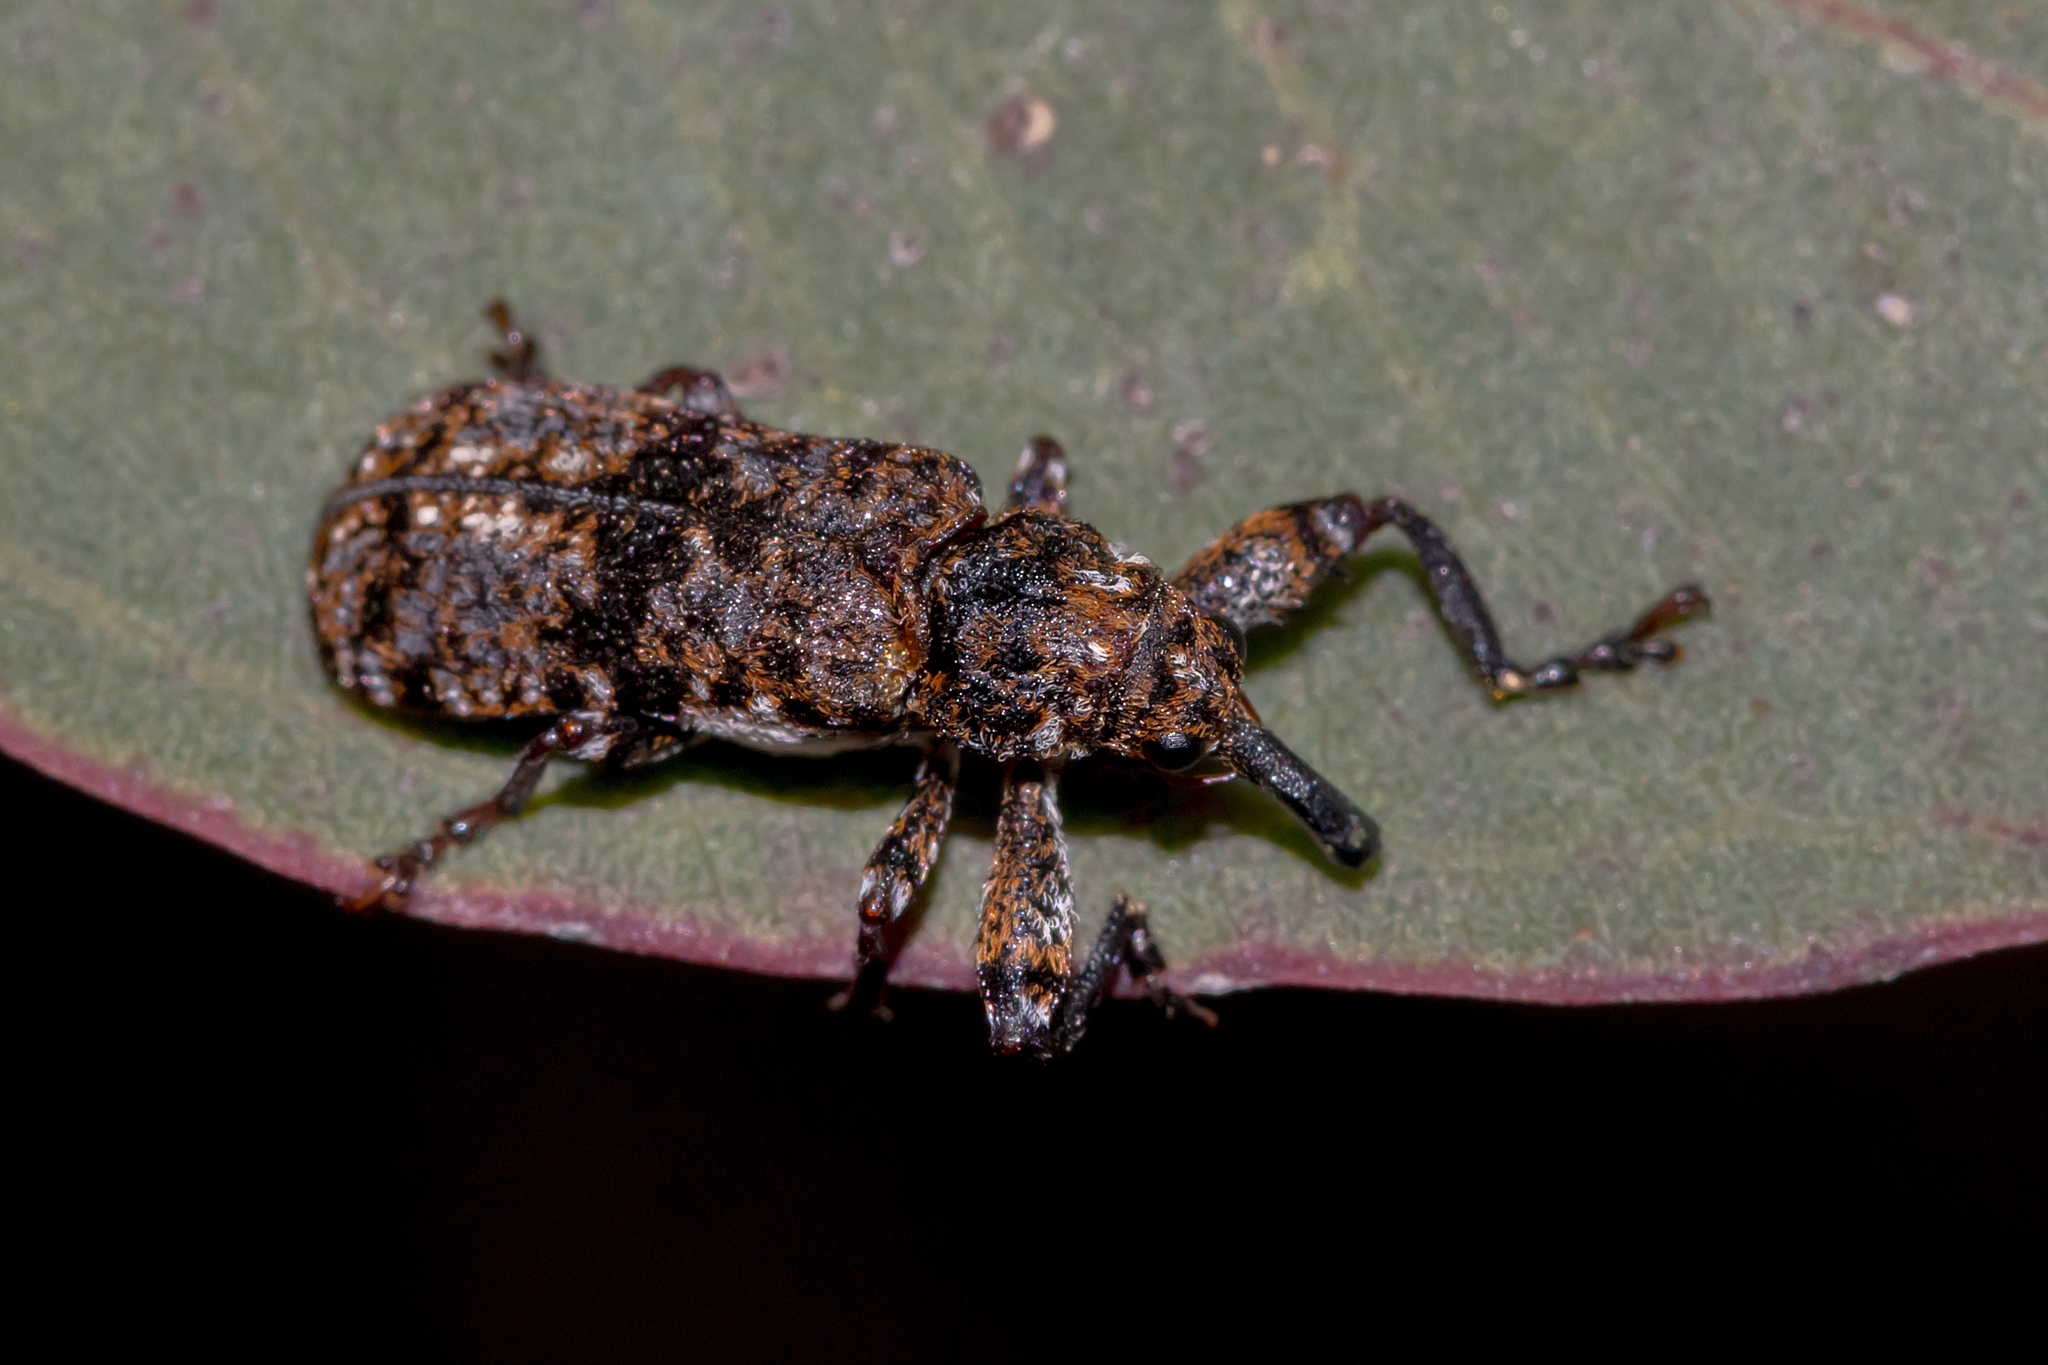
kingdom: Animalia
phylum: Arthropoda
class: Insecta
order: Coleoptera
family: Belidae
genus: Rhinotia
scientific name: Rhinotia dermestiventris
